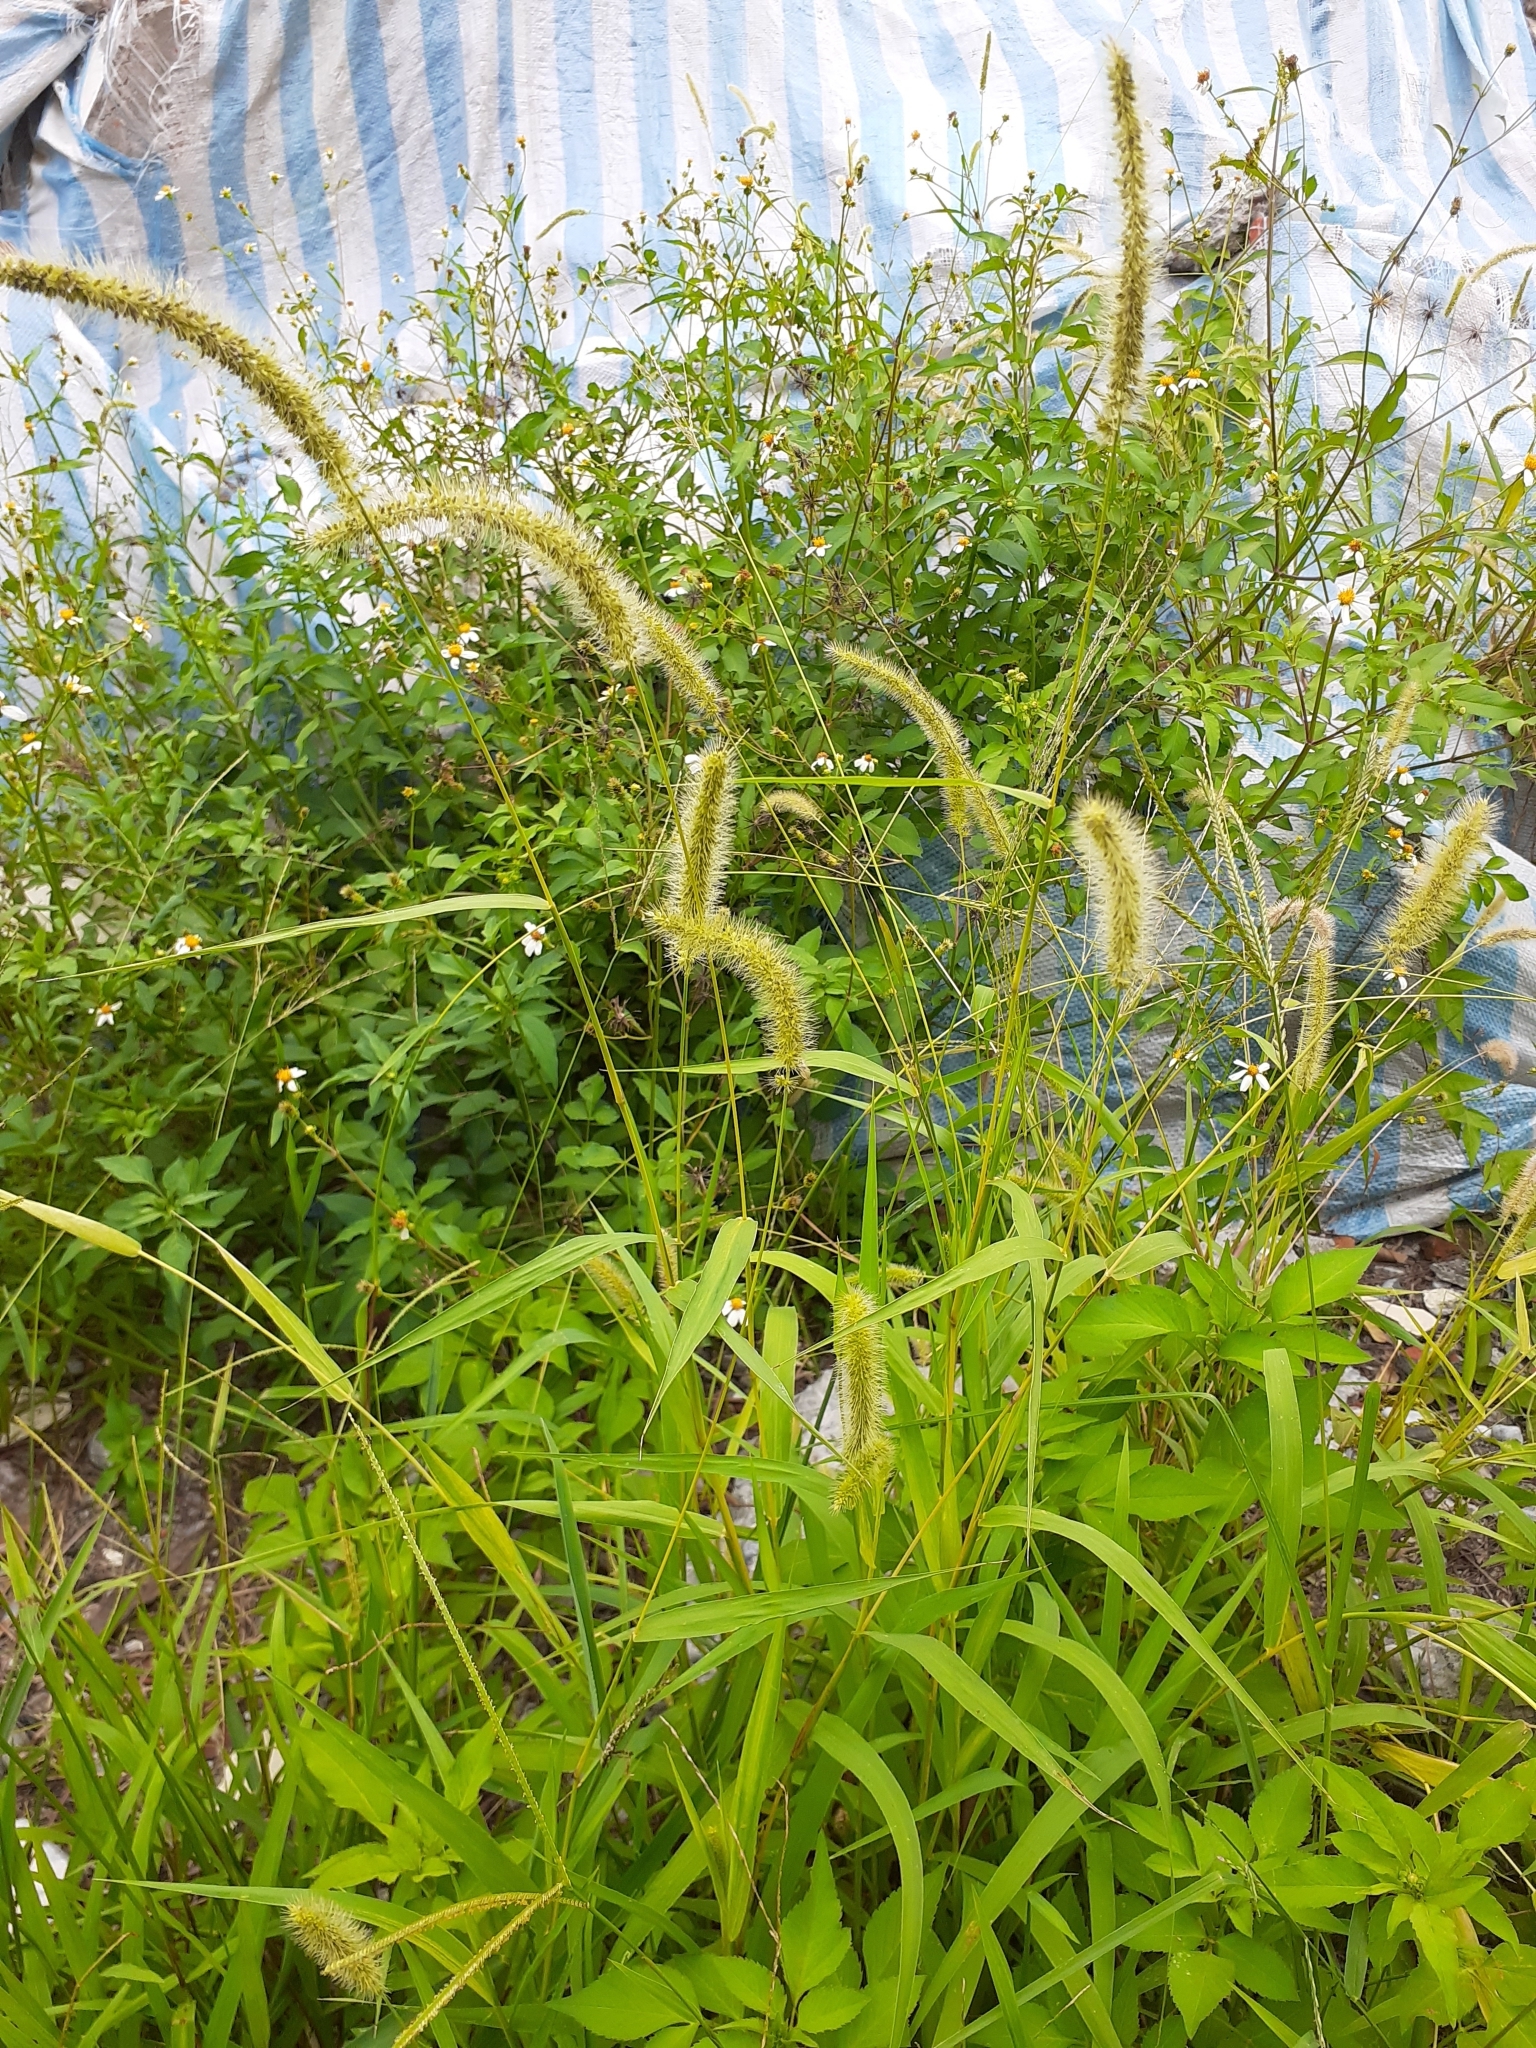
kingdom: Plantae
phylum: Tracheophyta
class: Liliopsida
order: Poales
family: Poaceae
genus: Setaria
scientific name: Setaria verticillata
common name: Hooked bristlegrass
